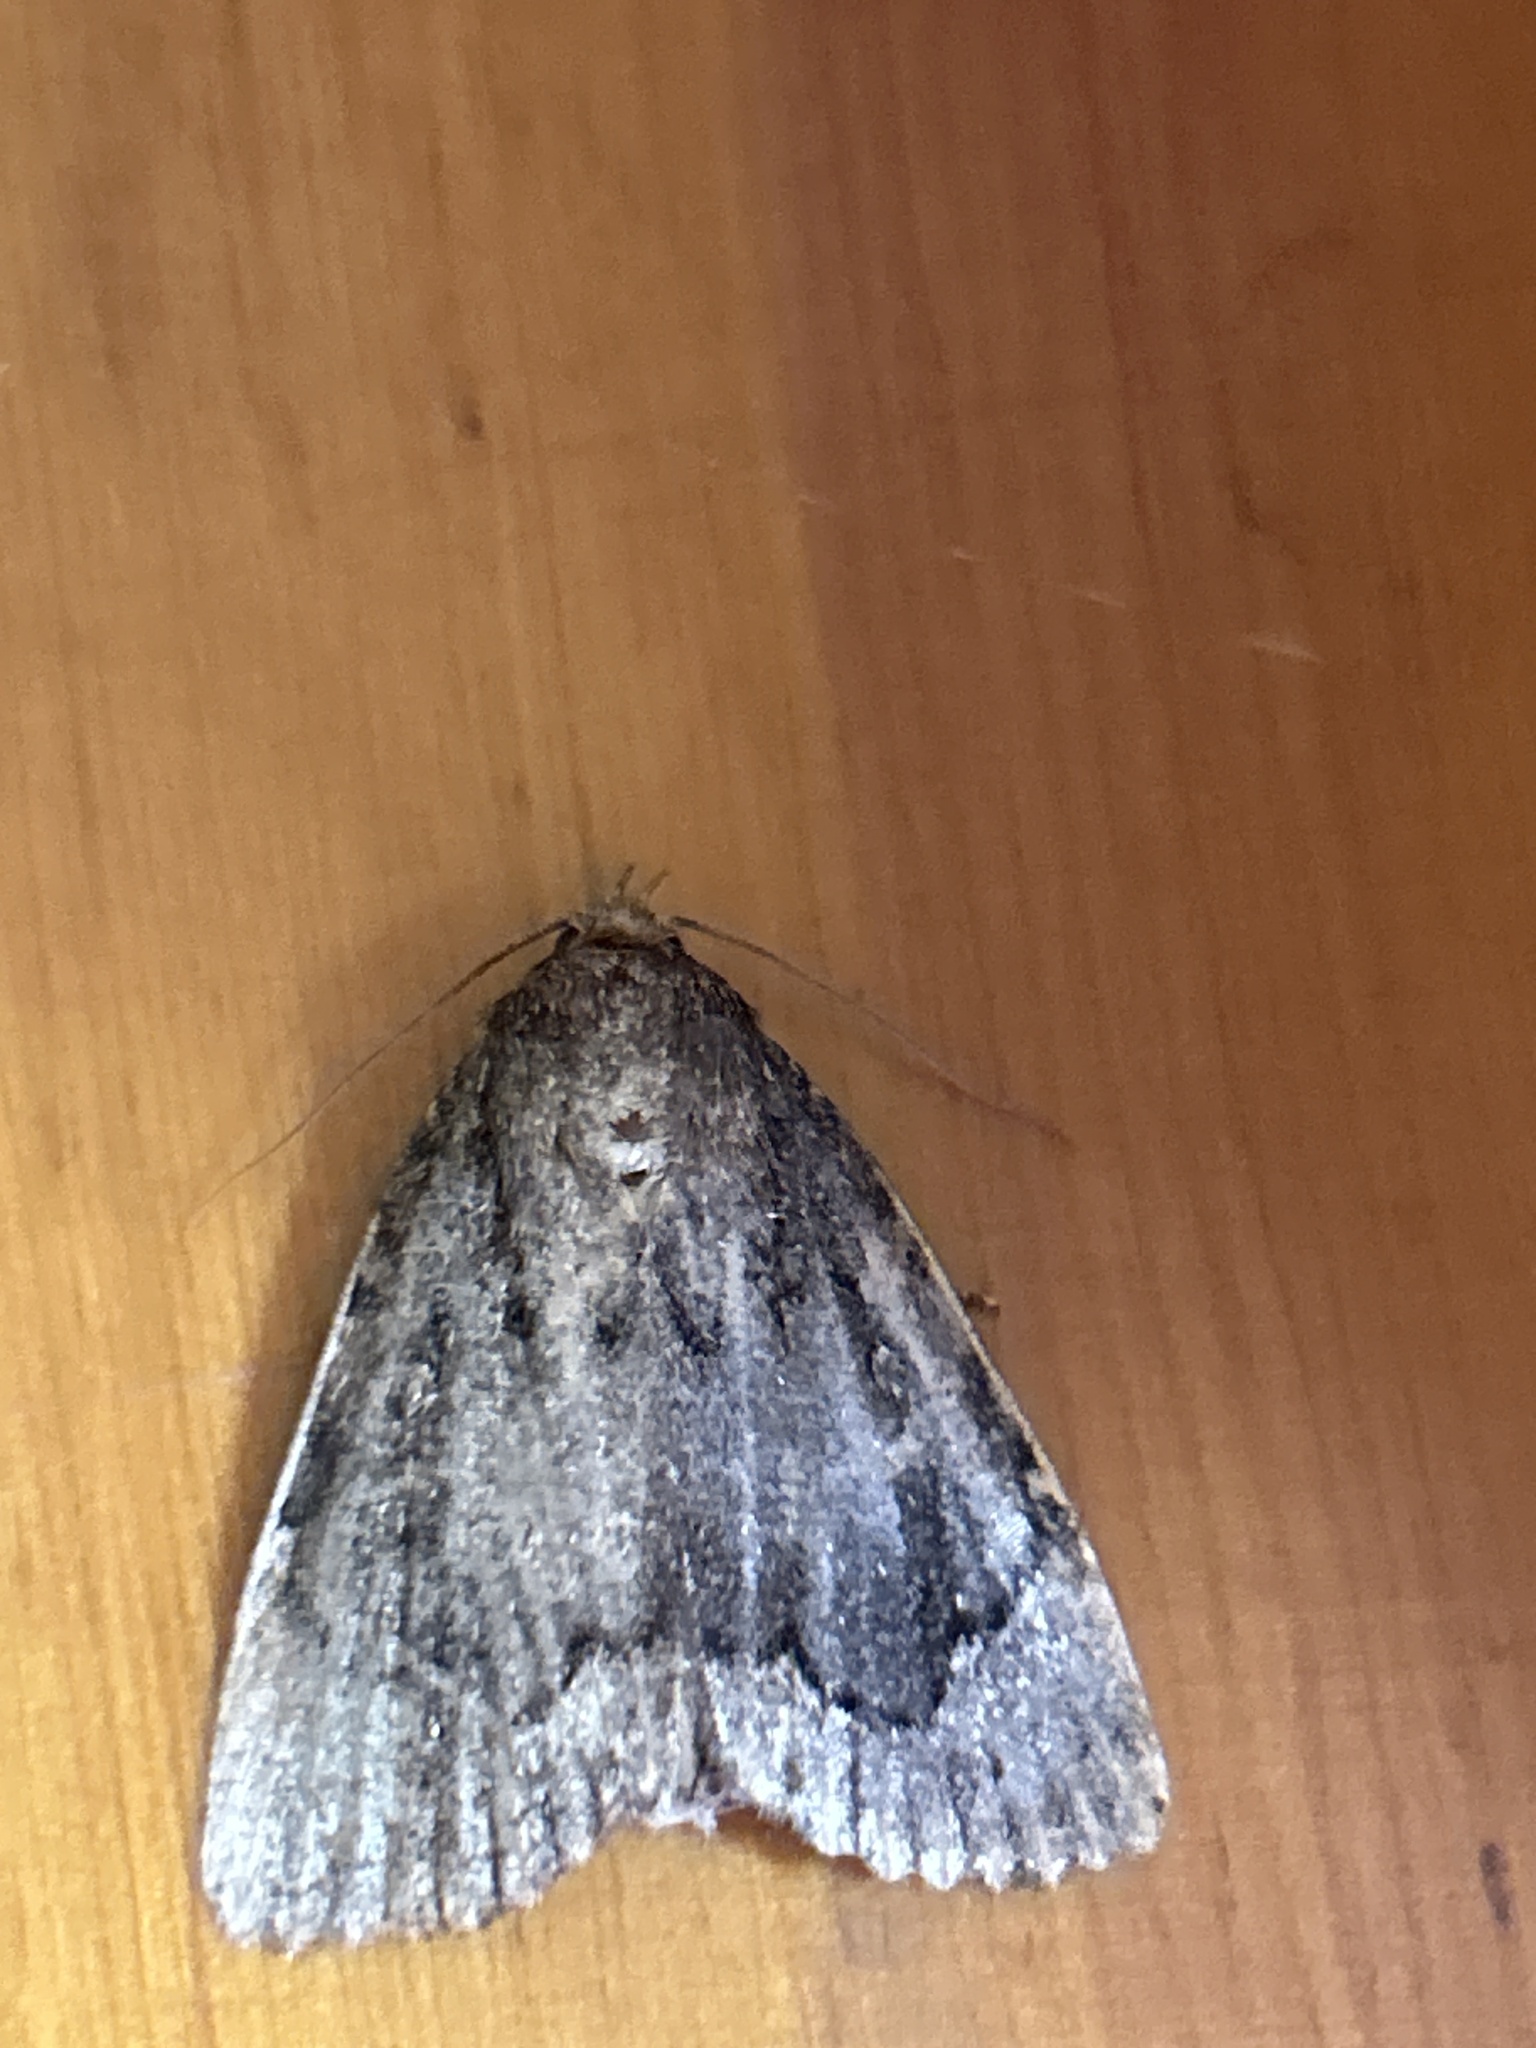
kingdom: Animalia
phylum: Arthropoda
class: Insecta
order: Lepidoptera
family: Noctuidae
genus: Amphipyra
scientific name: Amphipyra pyramidoides
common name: American copper underwing
